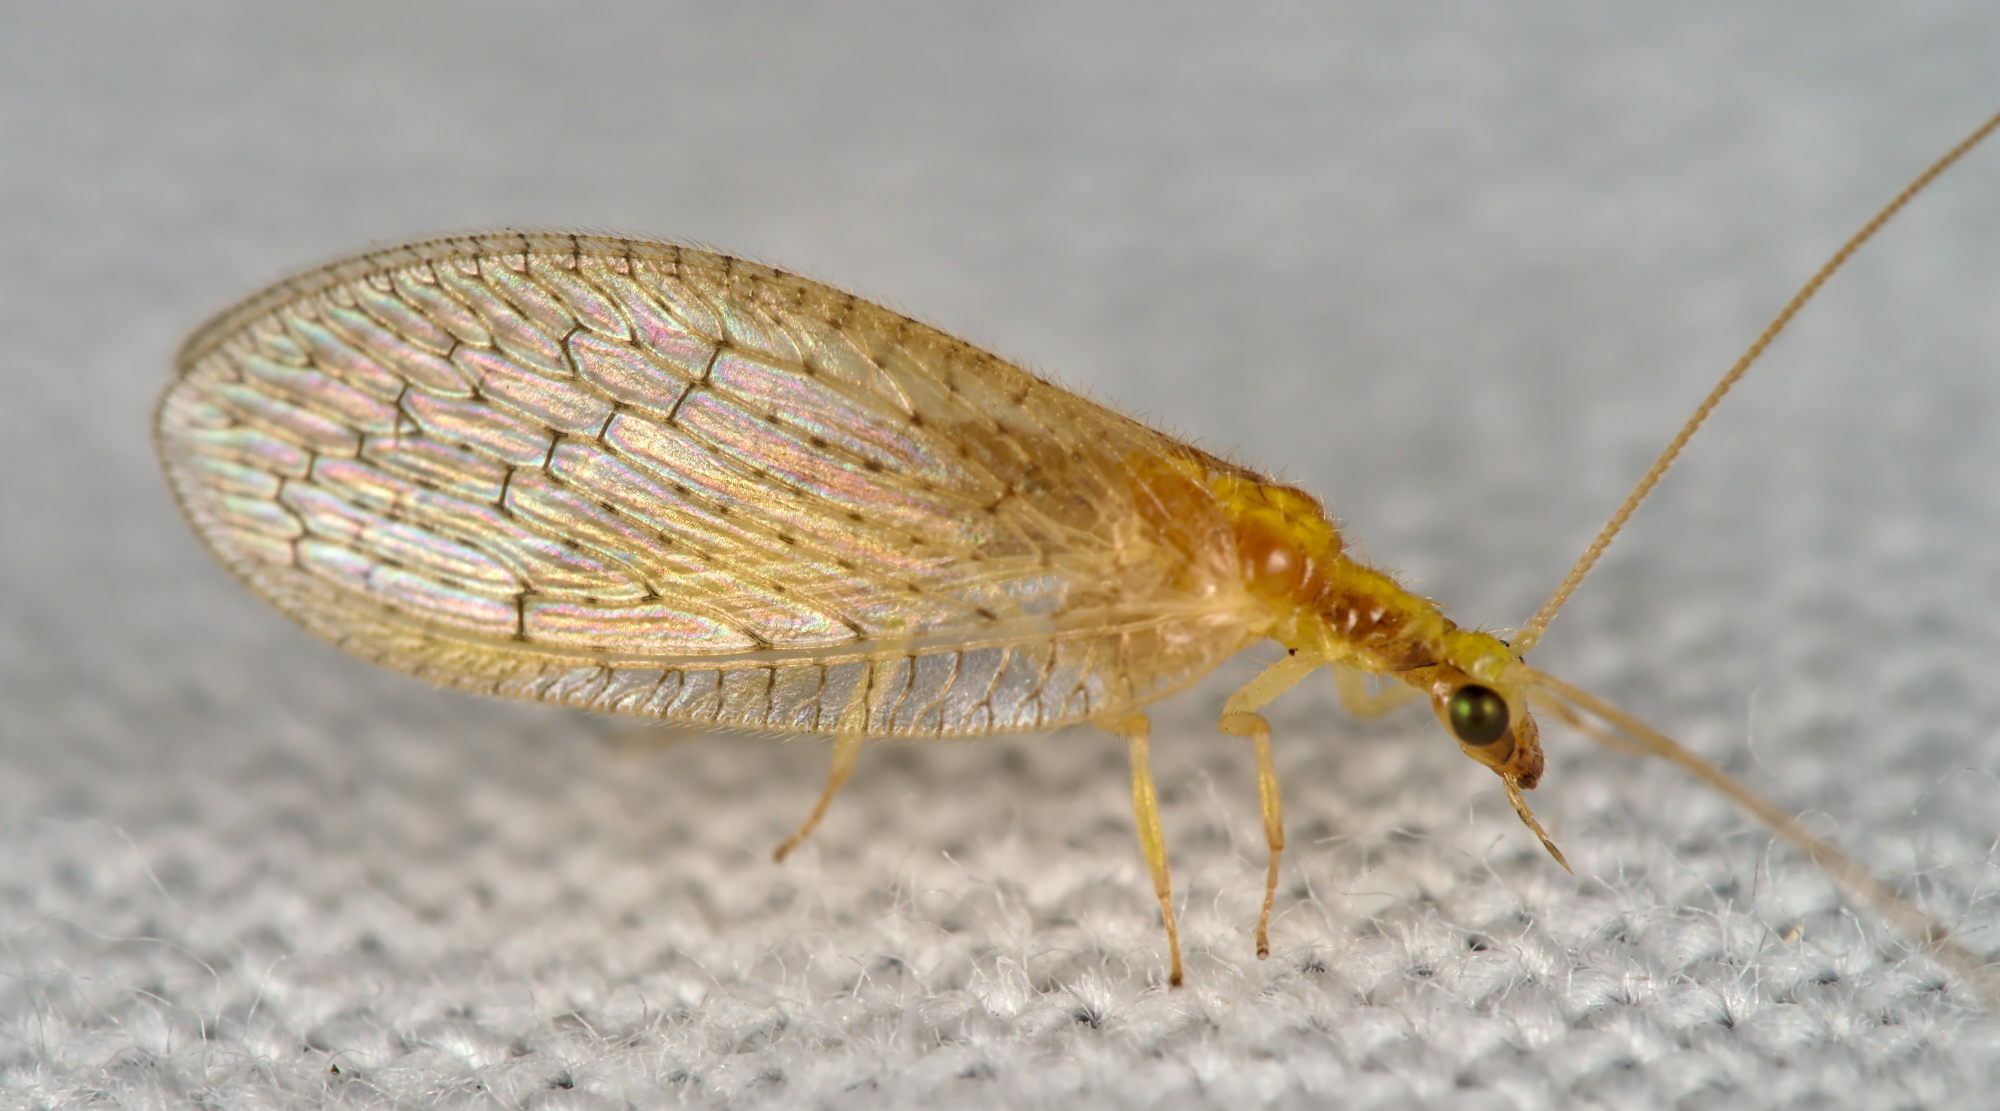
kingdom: Animalia
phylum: Arthropoda
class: Insecta
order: Neuroptera
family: Hemerobiidae
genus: Hemerobius
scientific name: Hemerobius micans
